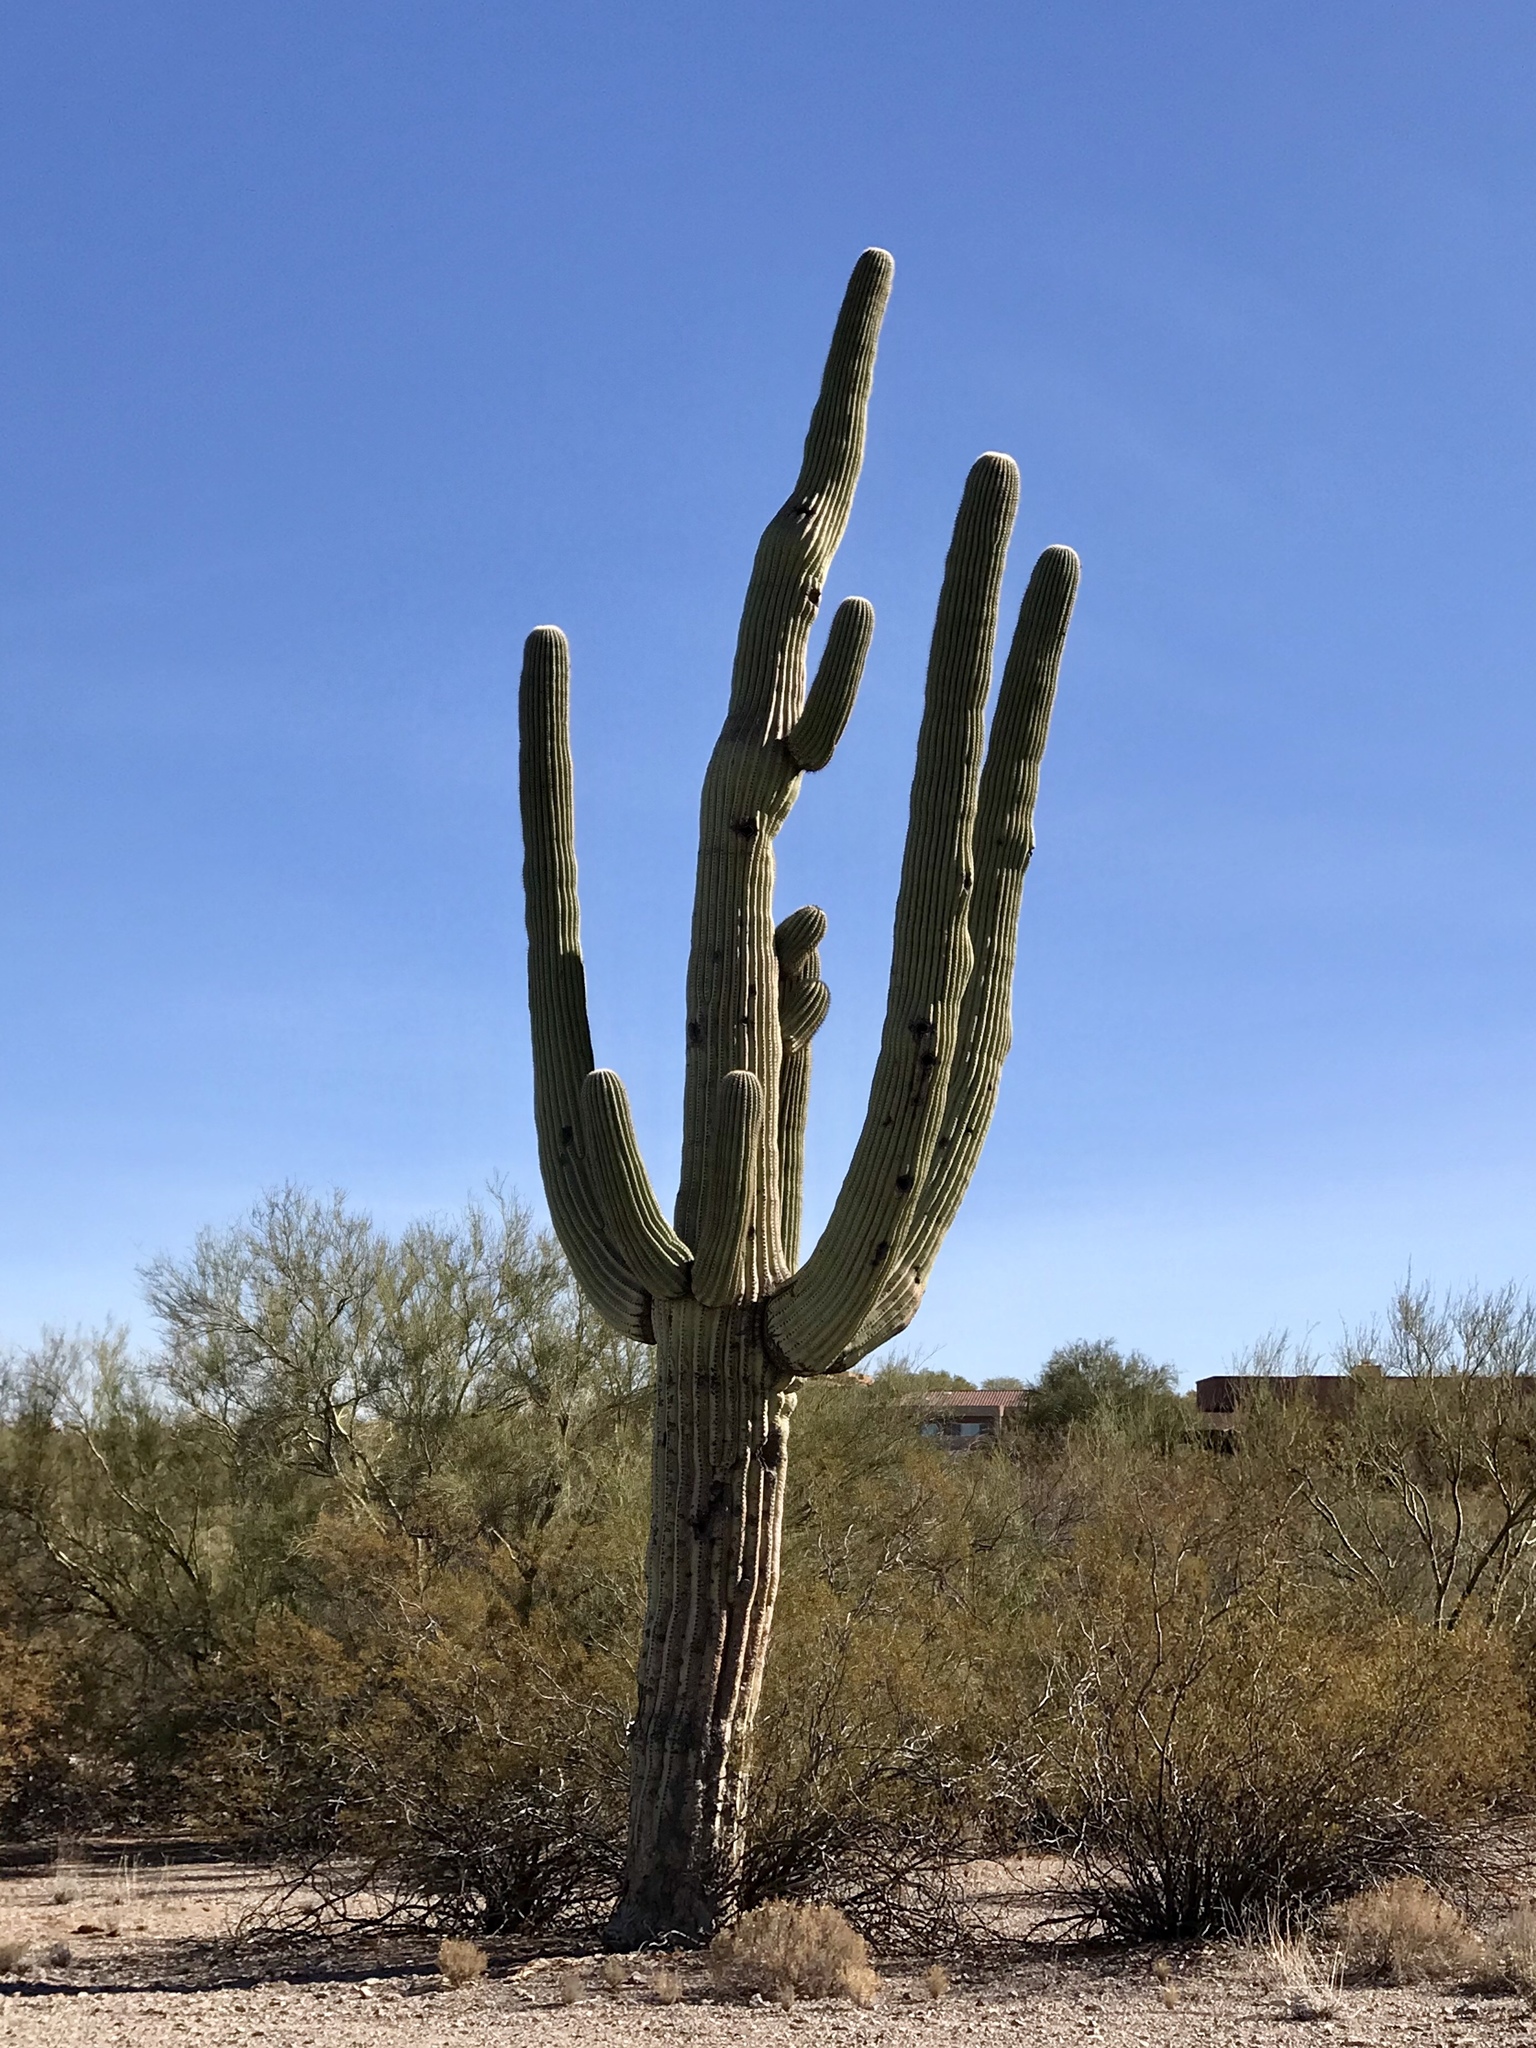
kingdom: Plantae
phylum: Tracheophyta
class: Magnoliopsida
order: Caryophyllales
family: Cactaceae
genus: Carnegiea
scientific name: Carnegiea gigantea
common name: Saguaro
